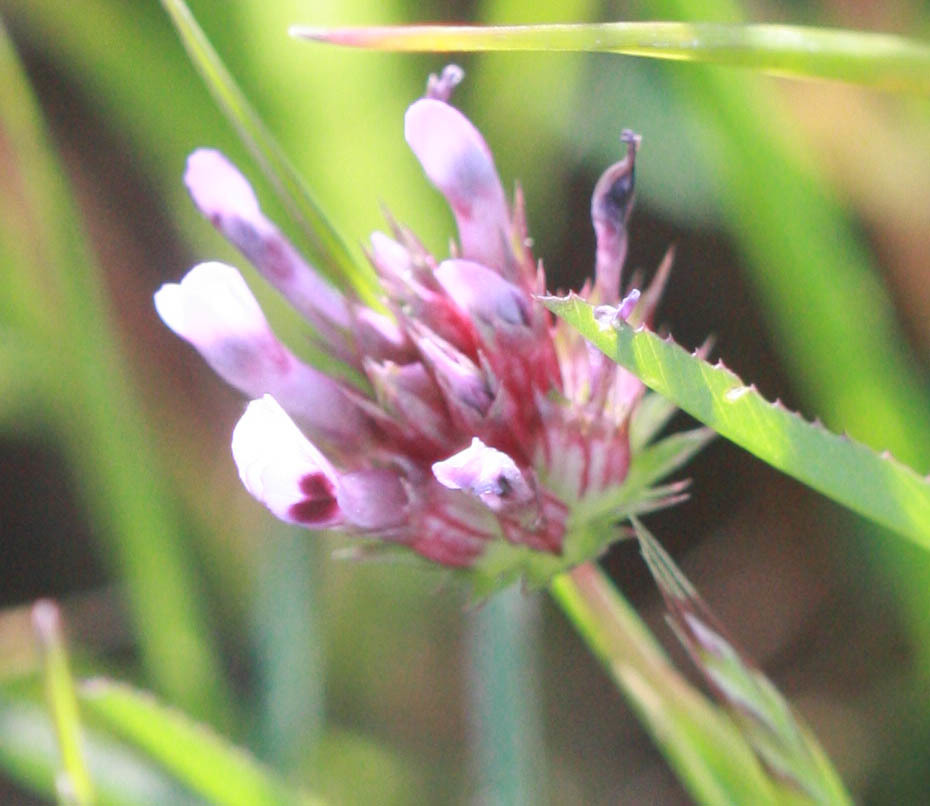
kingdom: Plantae
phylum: Tracheophyta
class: Magnoliopsida
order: Fabales
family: Fabaceae
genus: Trifolium
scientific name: Trifolium willdenovii
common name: Tomcat clover
